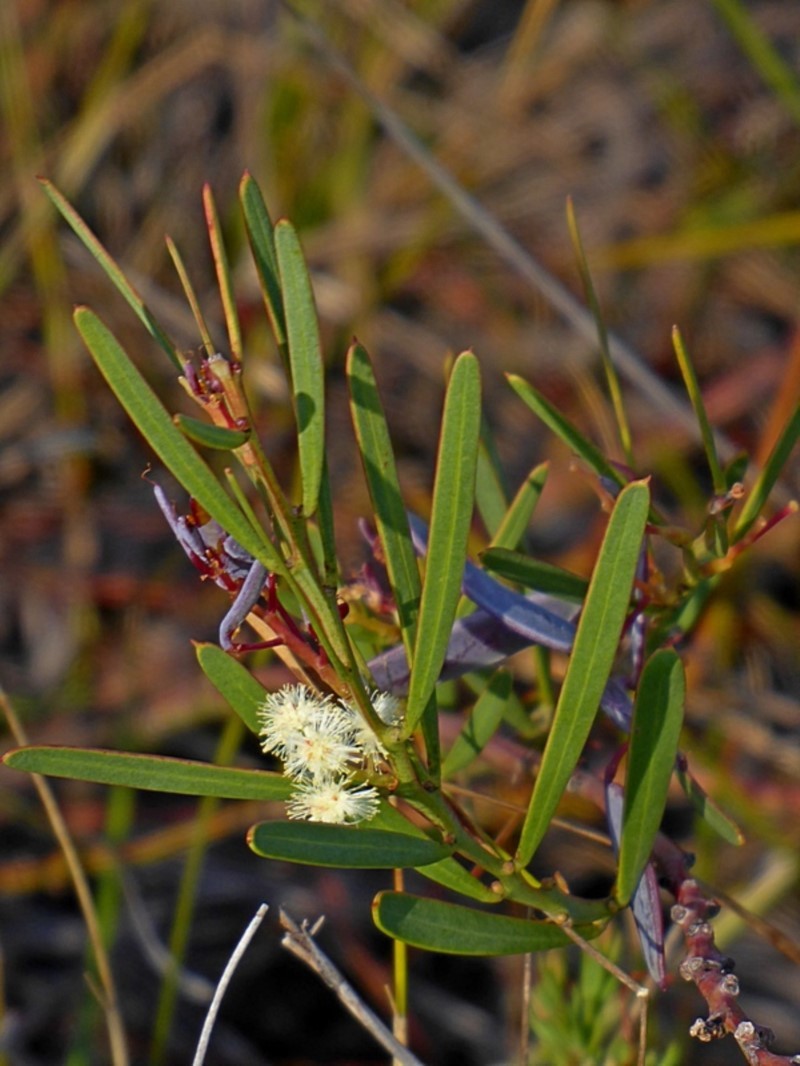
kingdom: Plantae
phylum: Tracheophyta
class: Magnoliopsida
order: Fabales
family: Fabaceae
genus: Acacia
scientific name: Acacia suaveolens
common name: Sweet acacia
